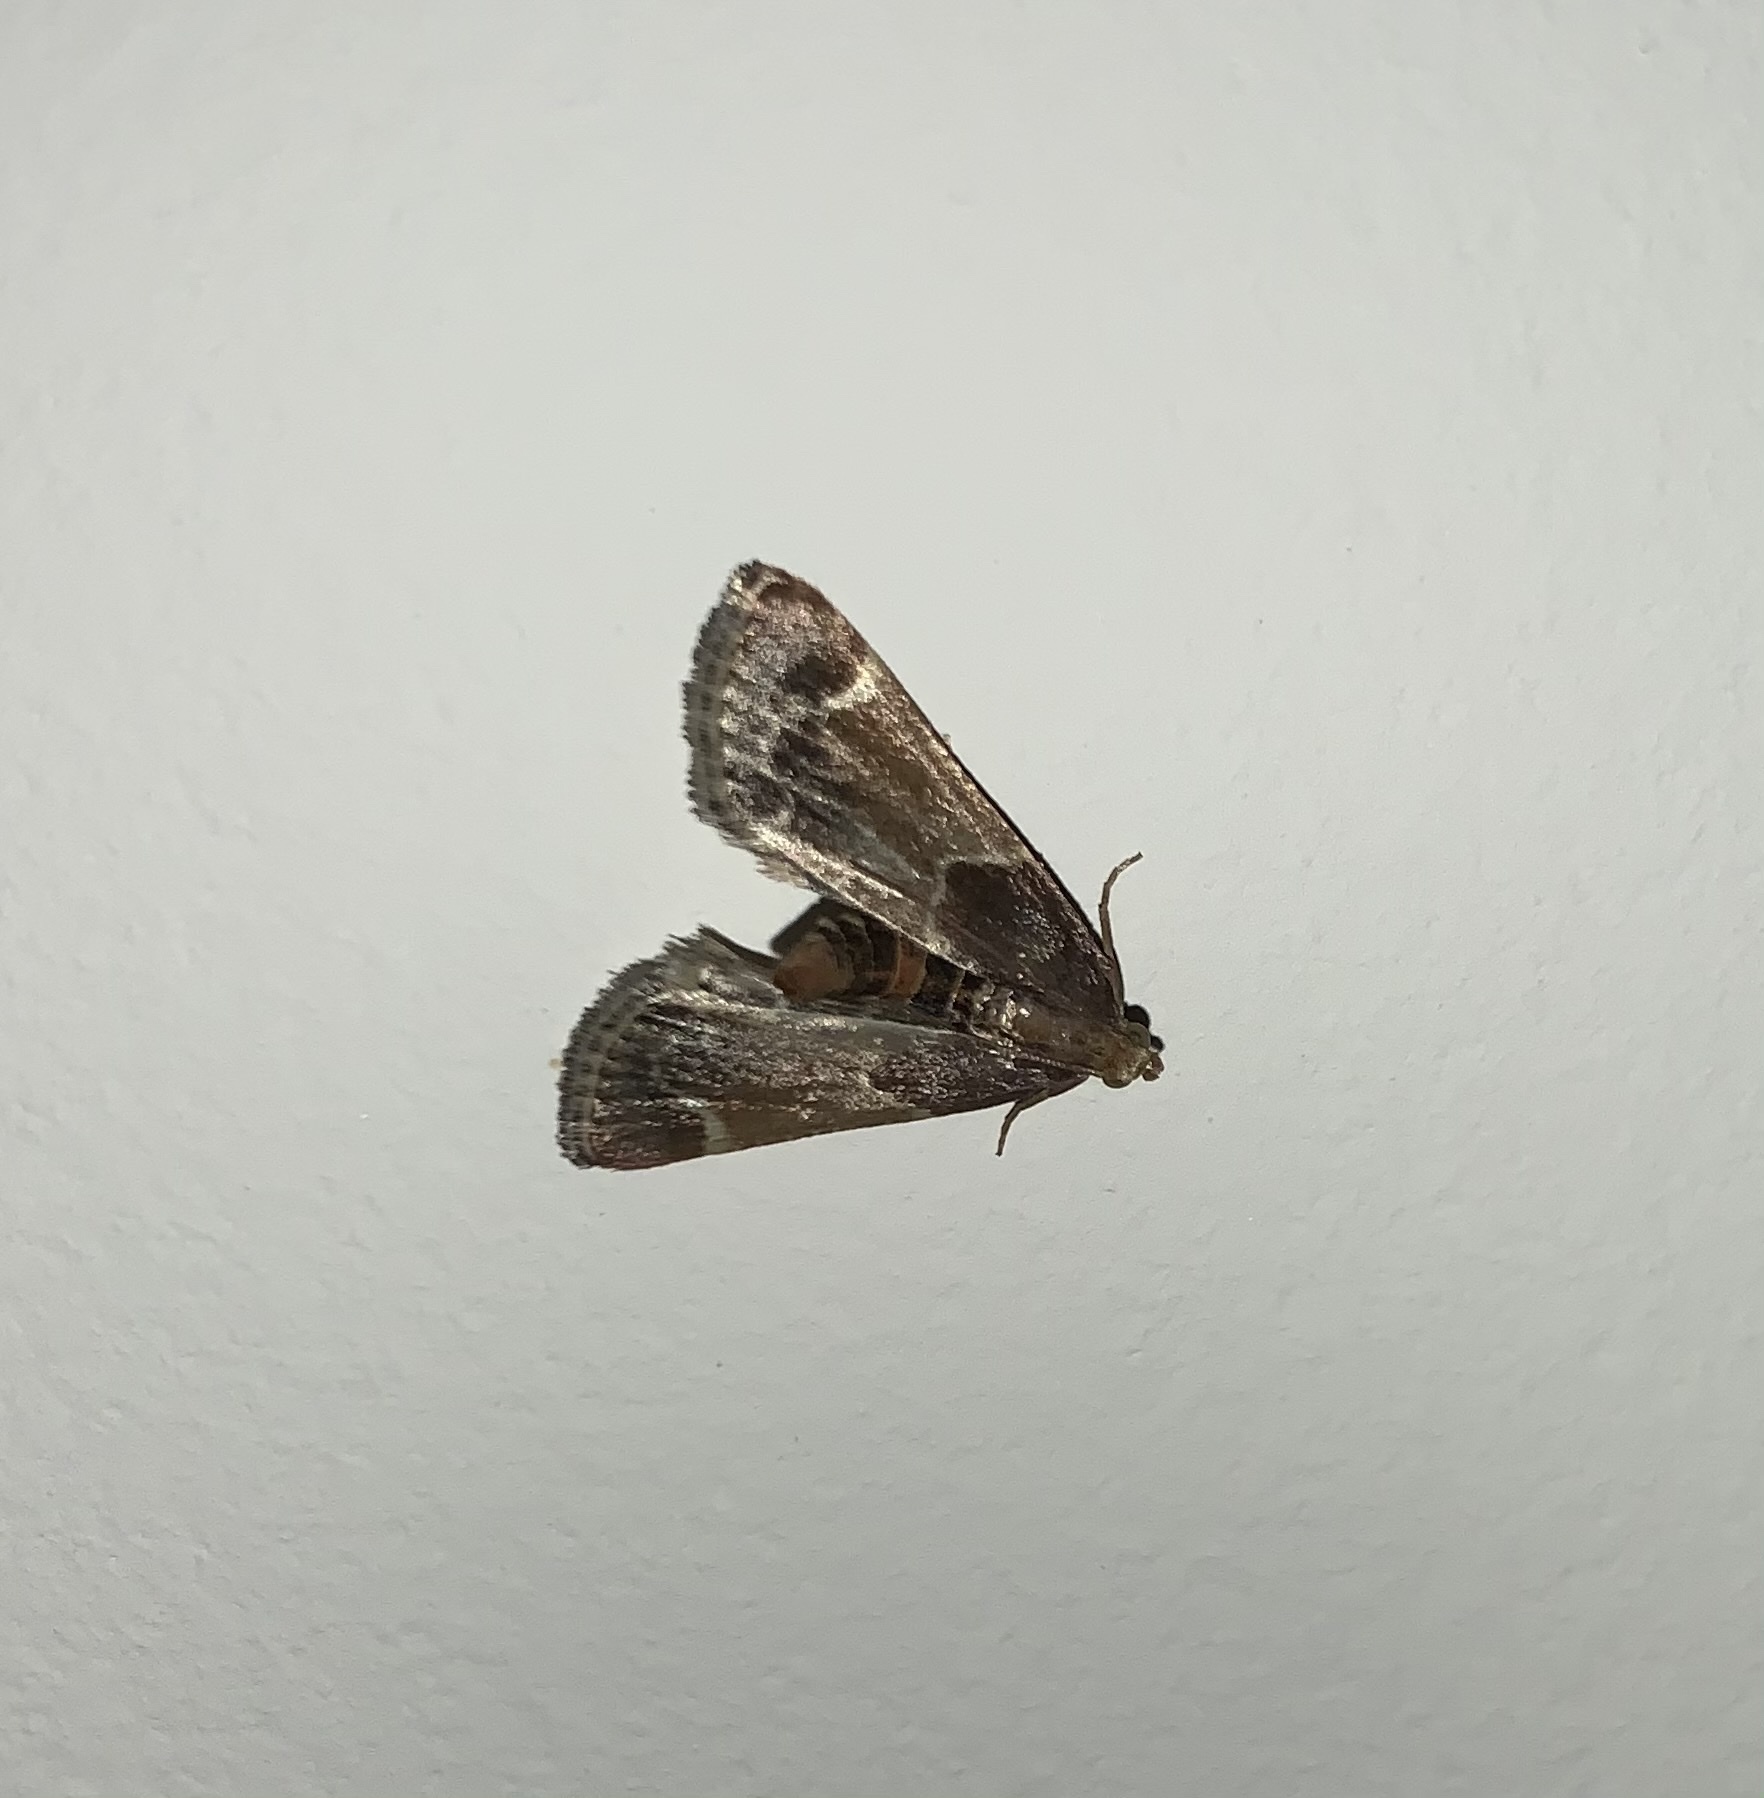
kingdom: Animalia
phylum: Arthropoda
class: Insecta
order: Lepidoptera
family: Pyralidae
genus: Pyralis
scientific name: Pyralis farinalis
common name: Meal moth
